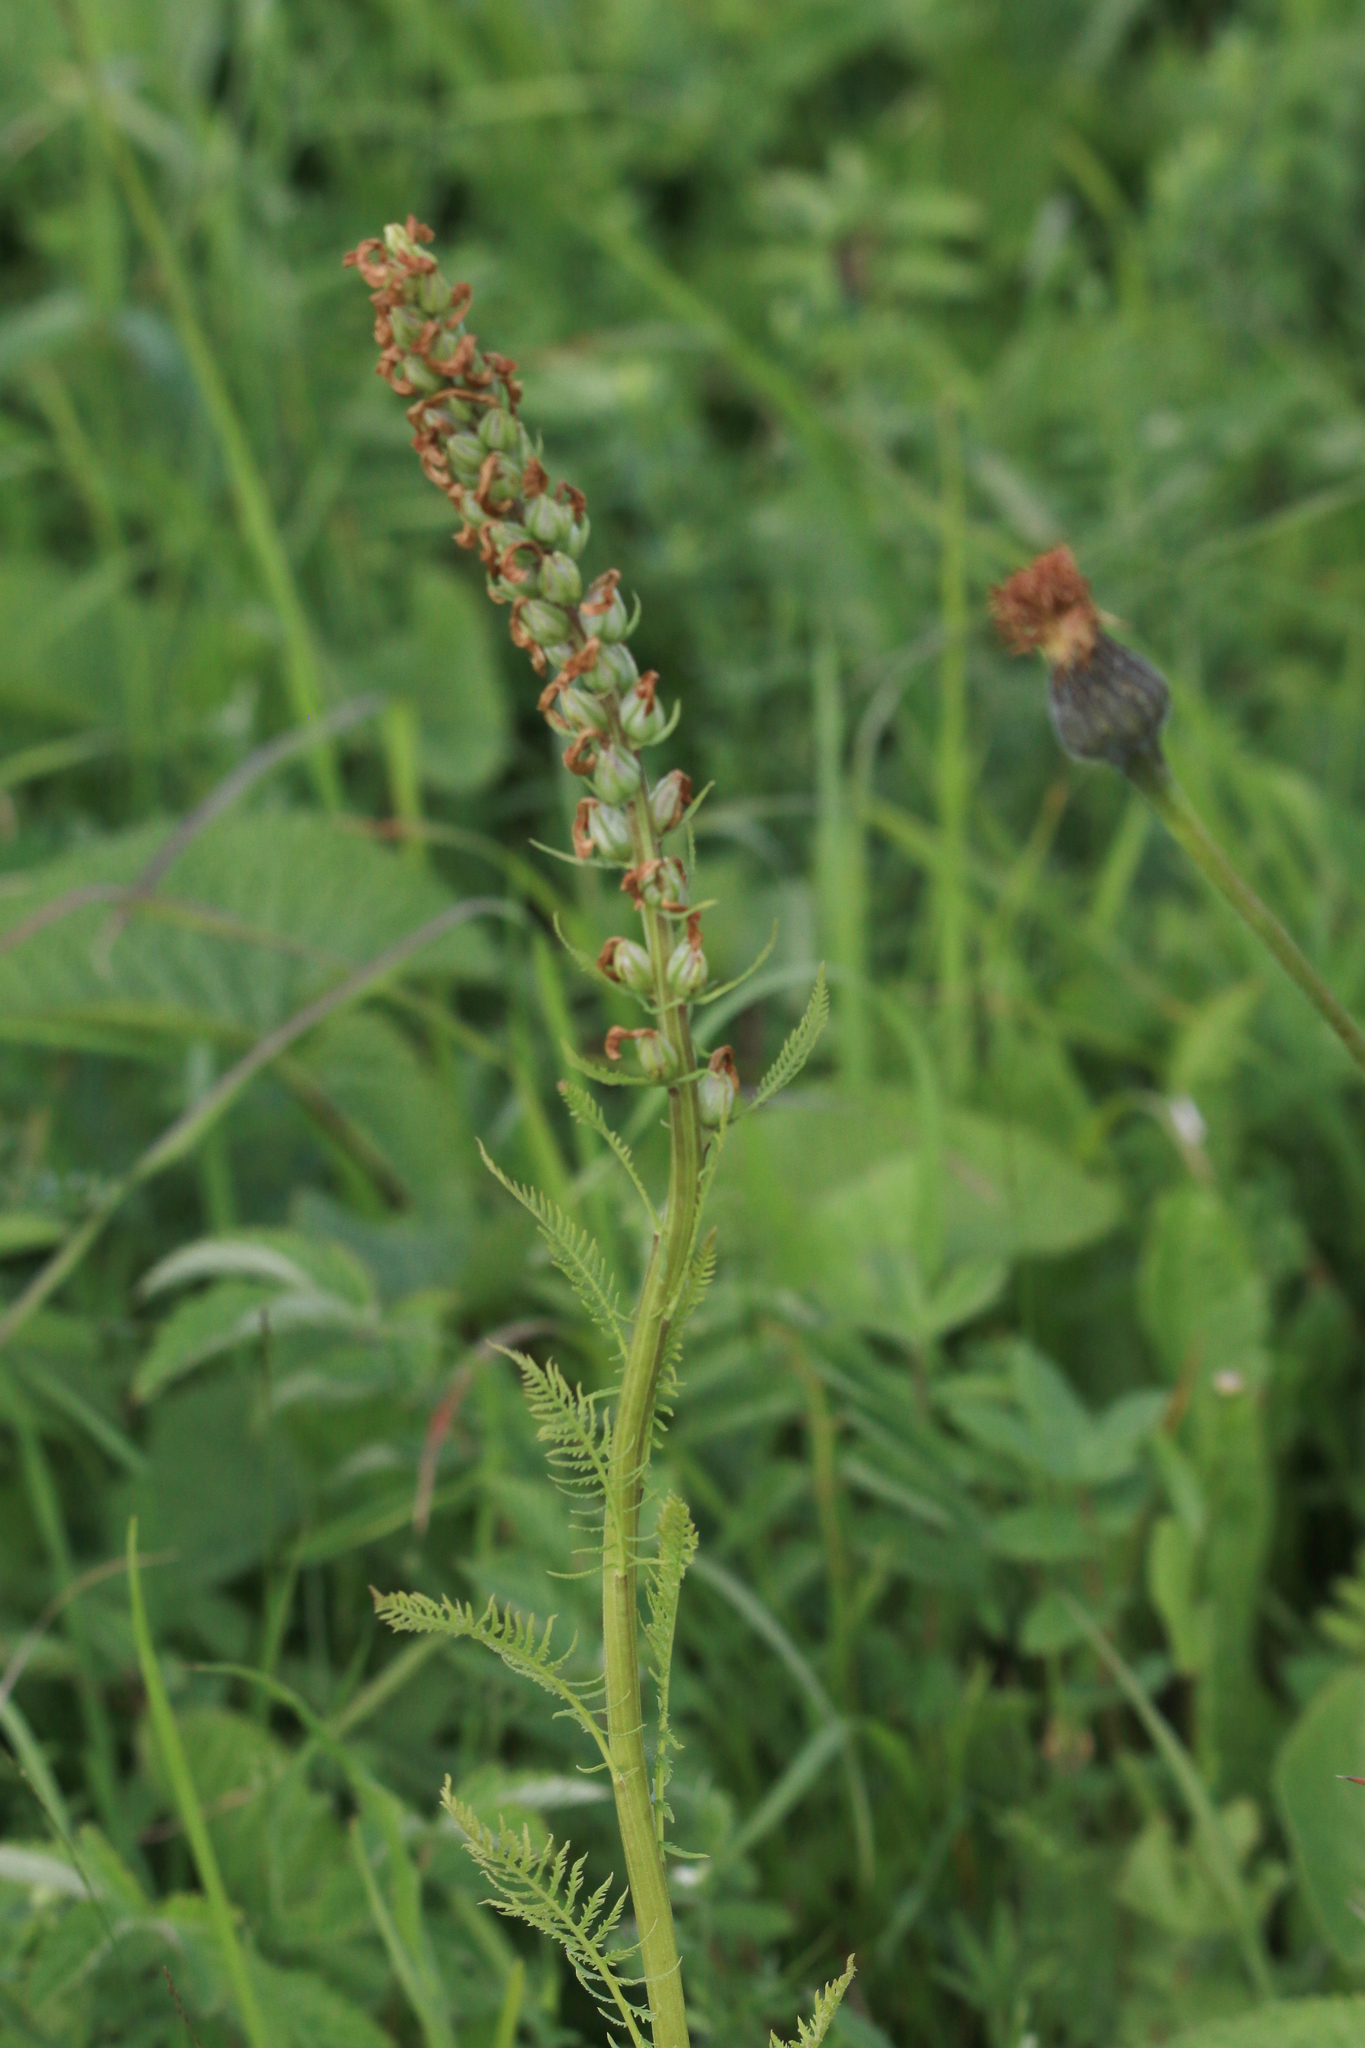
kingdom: Plantae
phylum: Tracheophyta
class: Magnoliopsida
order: Lamiales
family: Orobanchaceae
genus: Pedicularis
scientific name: Pedicularis sibirica
